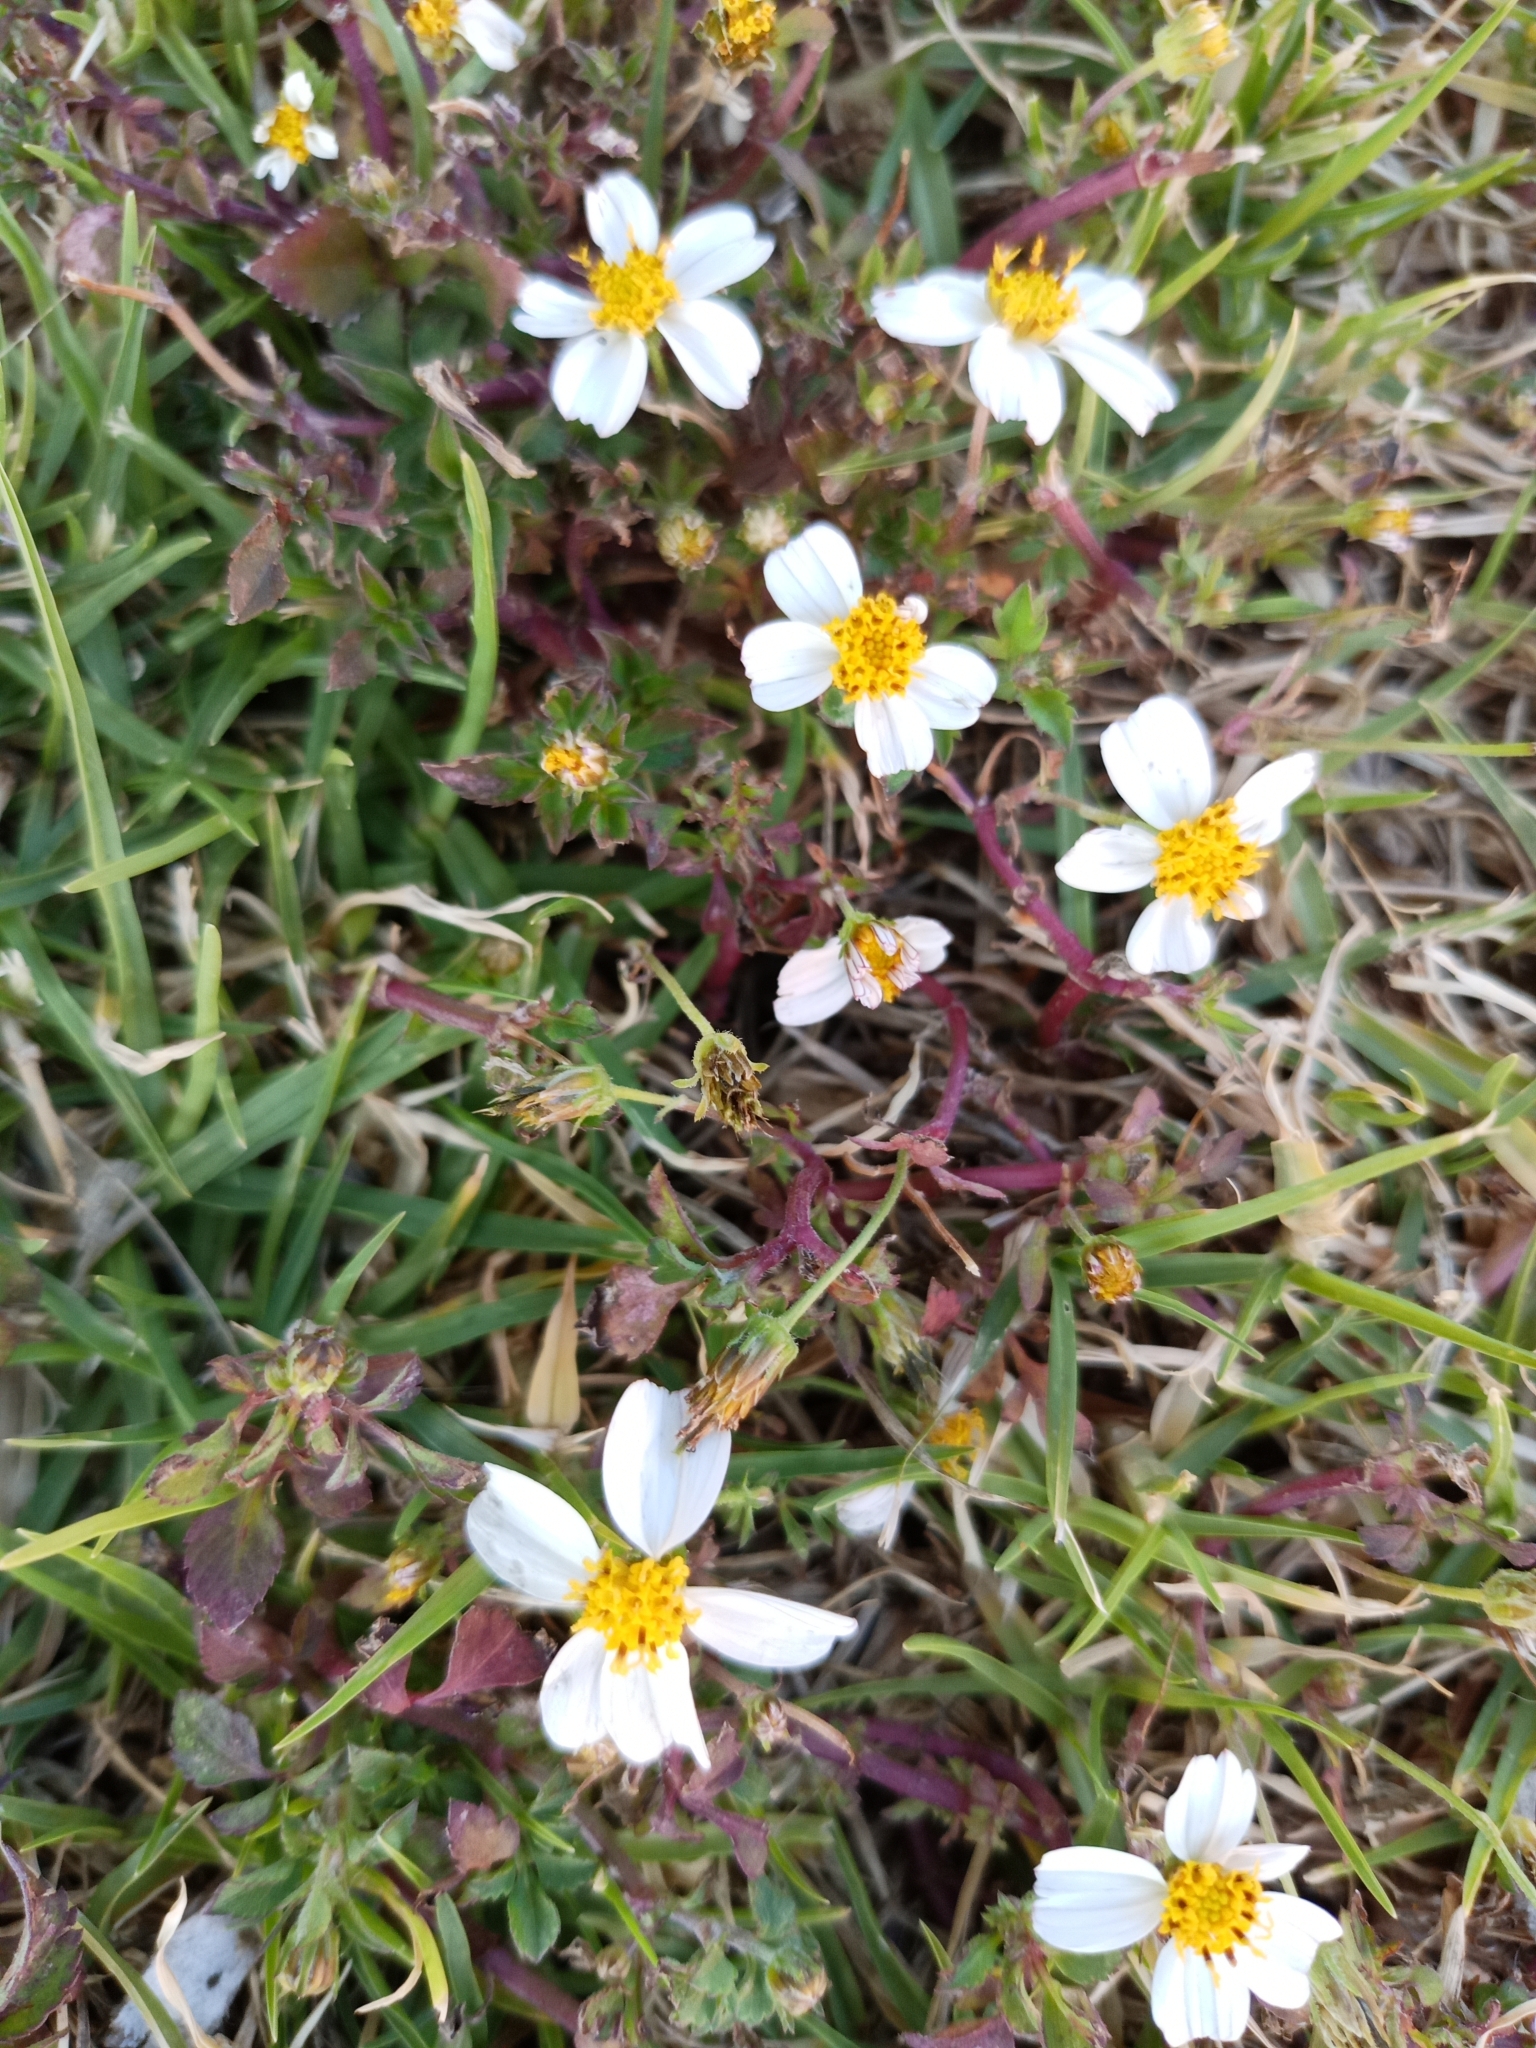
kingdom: Plantae
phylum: Tracheophyta
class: Magnoliopsida
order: Asterales
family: Asteraceae
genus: Bidens
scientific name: Bidens odorata
